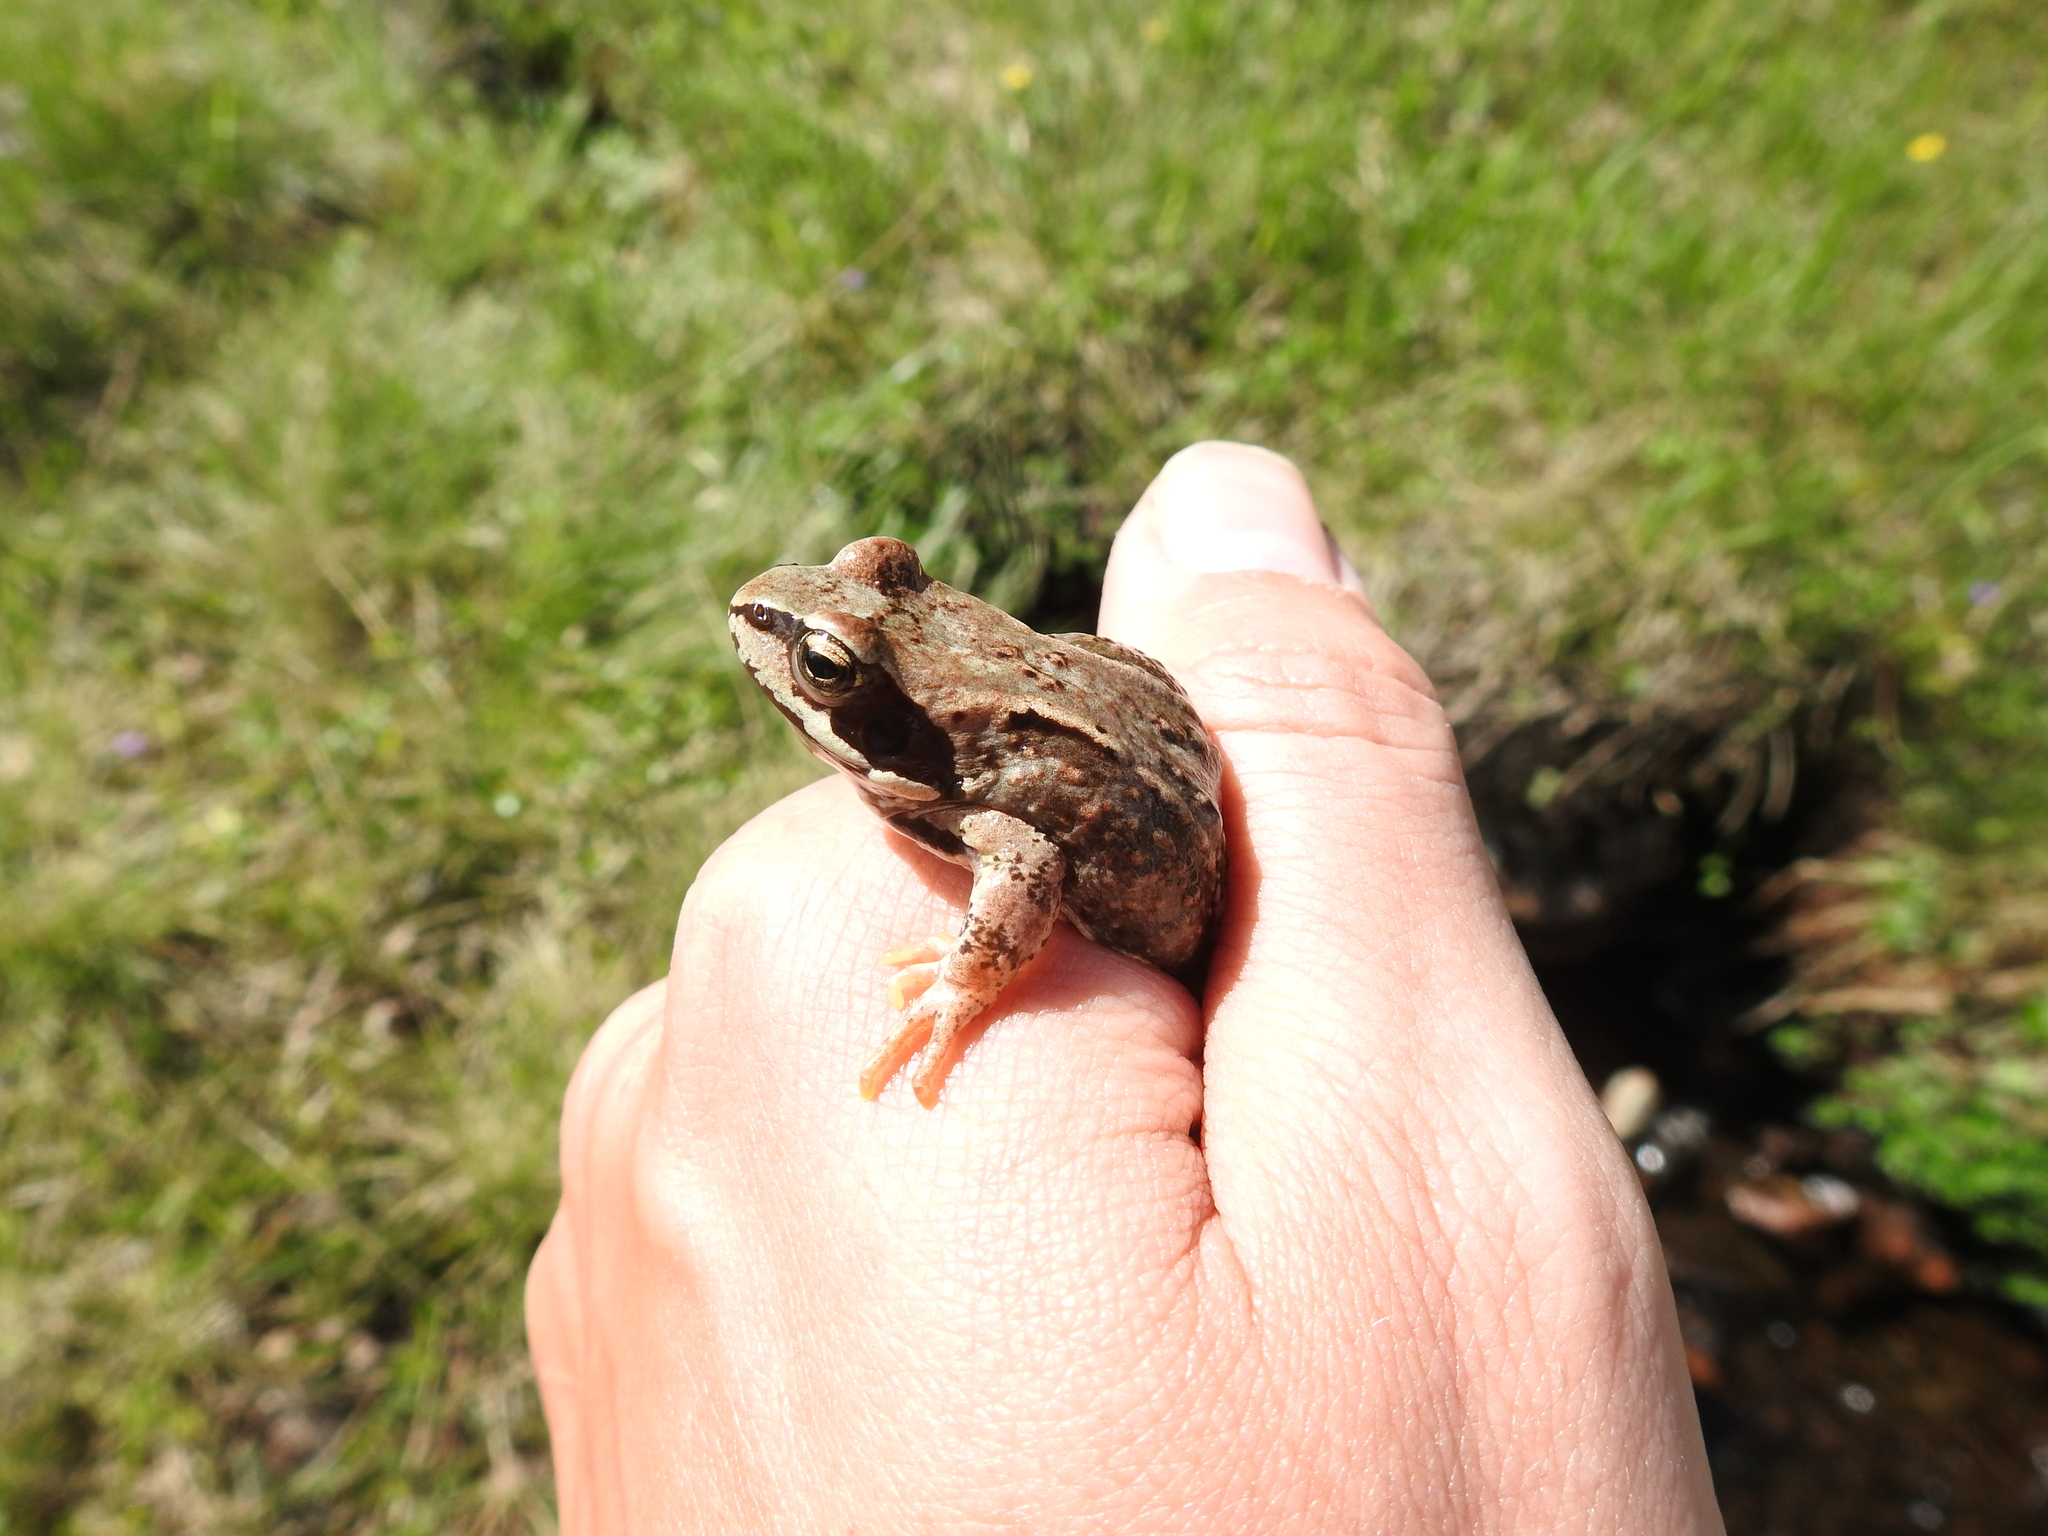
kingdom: Animalia
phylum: Chordata
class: Amphibia
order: Anura
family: Ranidae
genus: Rana
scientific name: Rana temporaria
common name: Common frog
